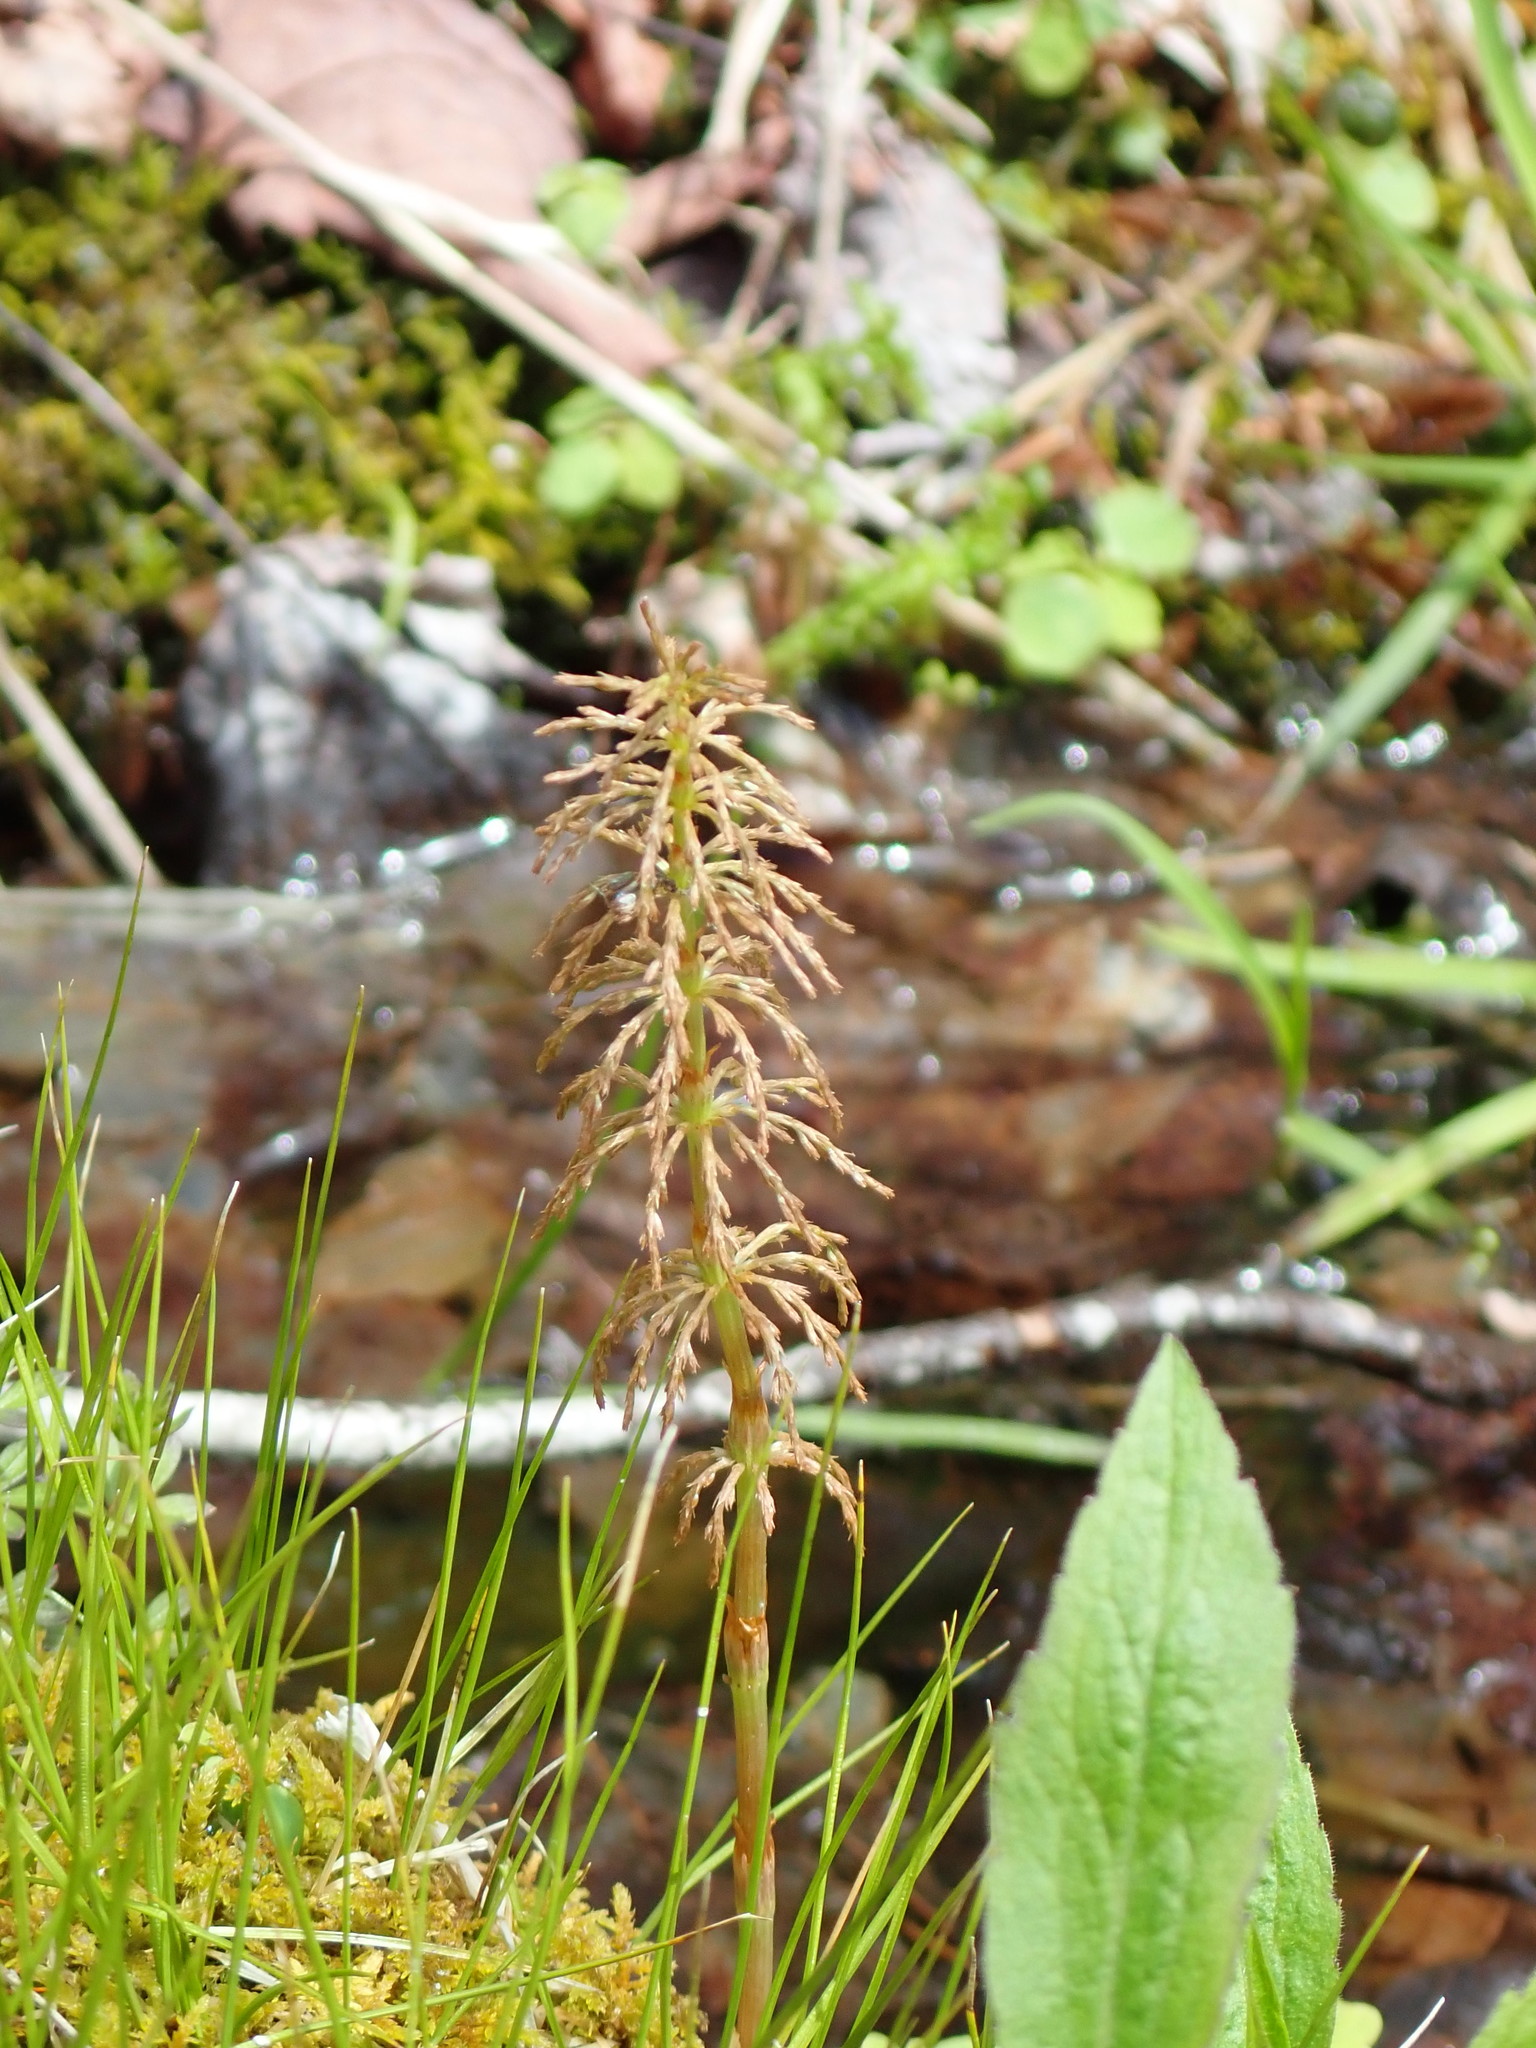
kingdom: Plantae
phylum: Tracheophyta
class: Polypodiopsida
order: Equisetales
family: Equisetaceae
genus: Equisetum
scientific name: Equisetum sylvaticum
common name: Wood horsetail
